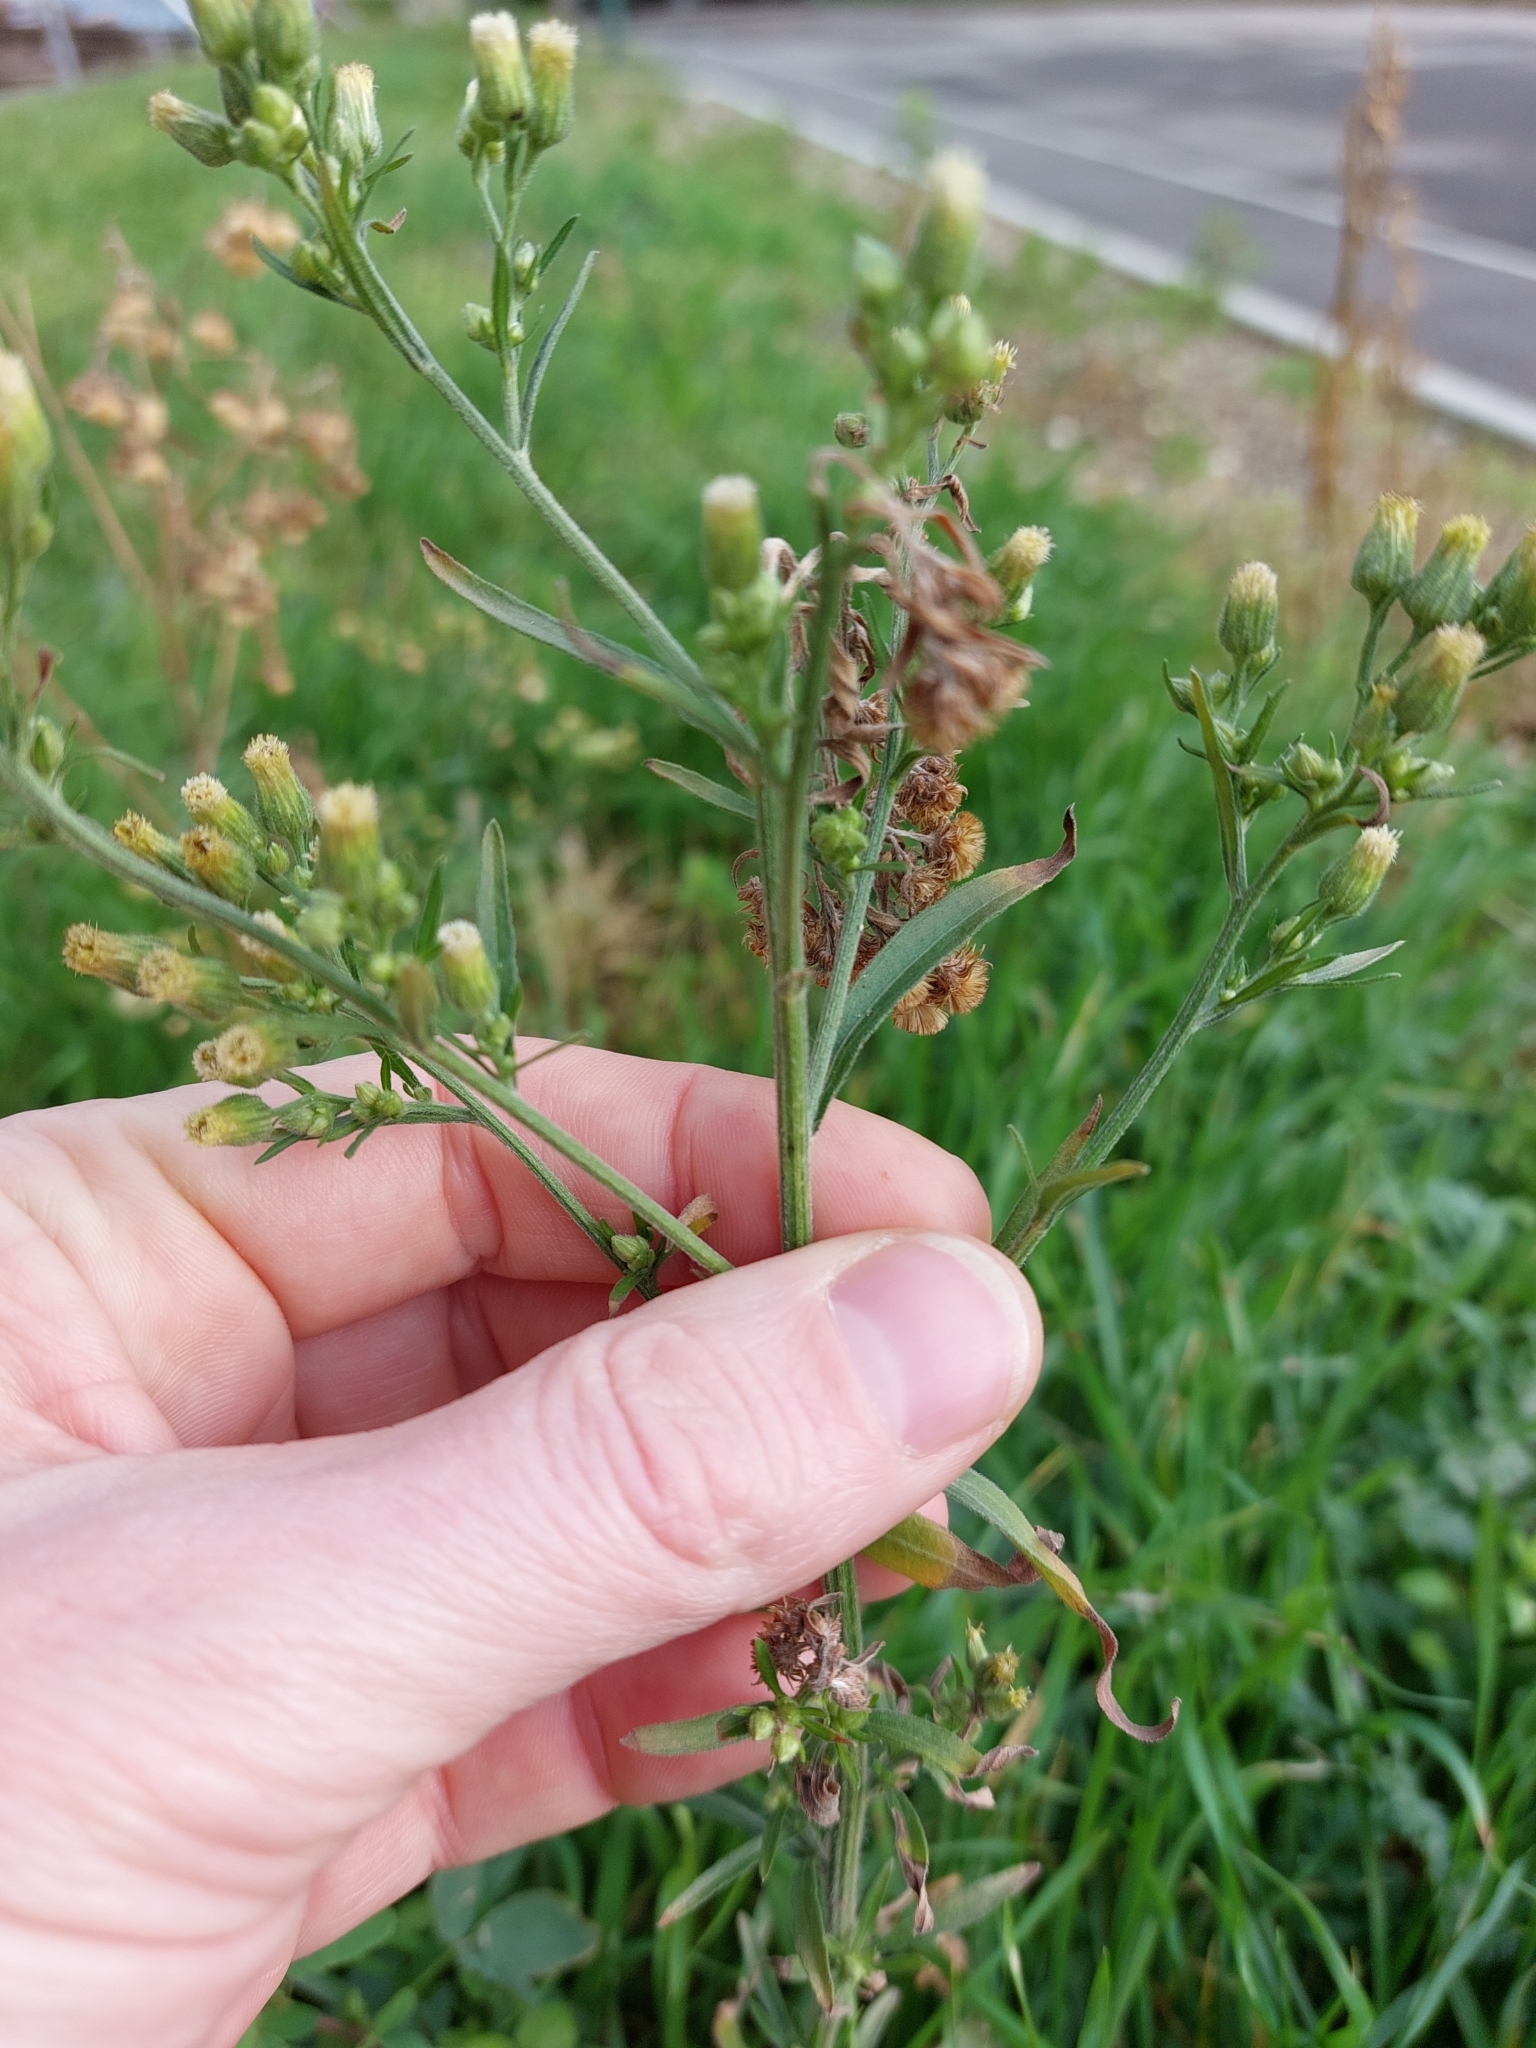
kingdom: Plantae
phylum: Tracheophyta
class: Magnoliopsida
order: Asterales
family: Asteraceae
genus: Erigeron
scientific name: Erigeron sumatrensis
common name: Daisy
